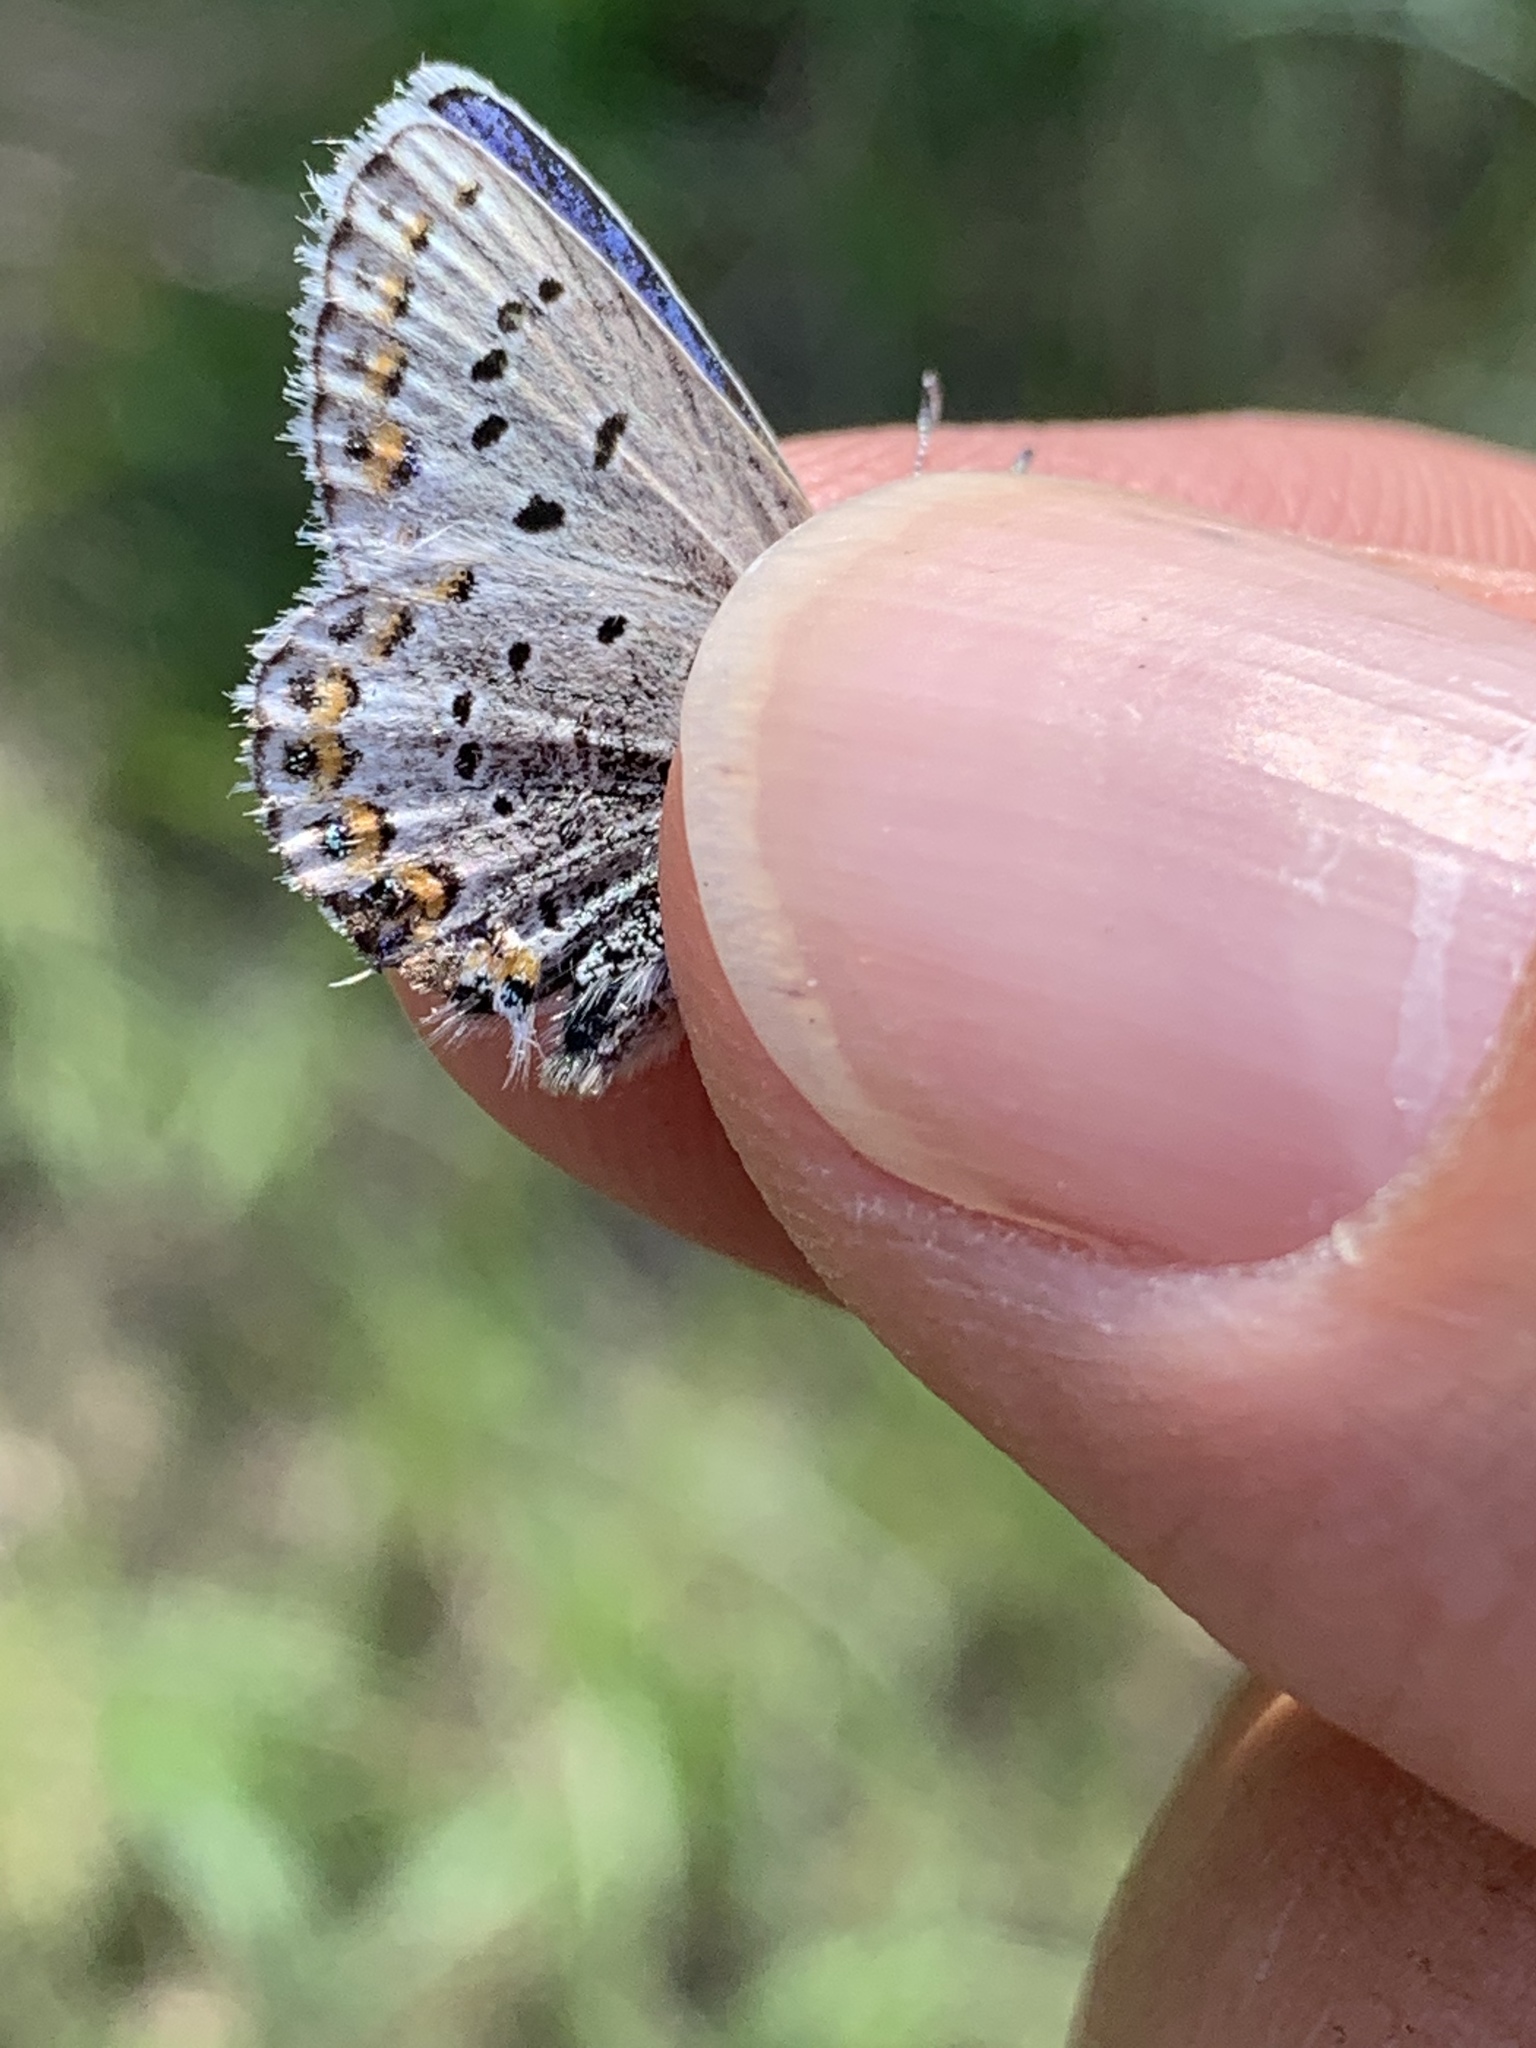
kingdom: Animalia
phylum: Arthropoda
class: Insecta
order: Lepidoptera
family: Lycaenidae
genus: Lycaeides
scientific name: Lycaeides idas
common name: Northern blue
